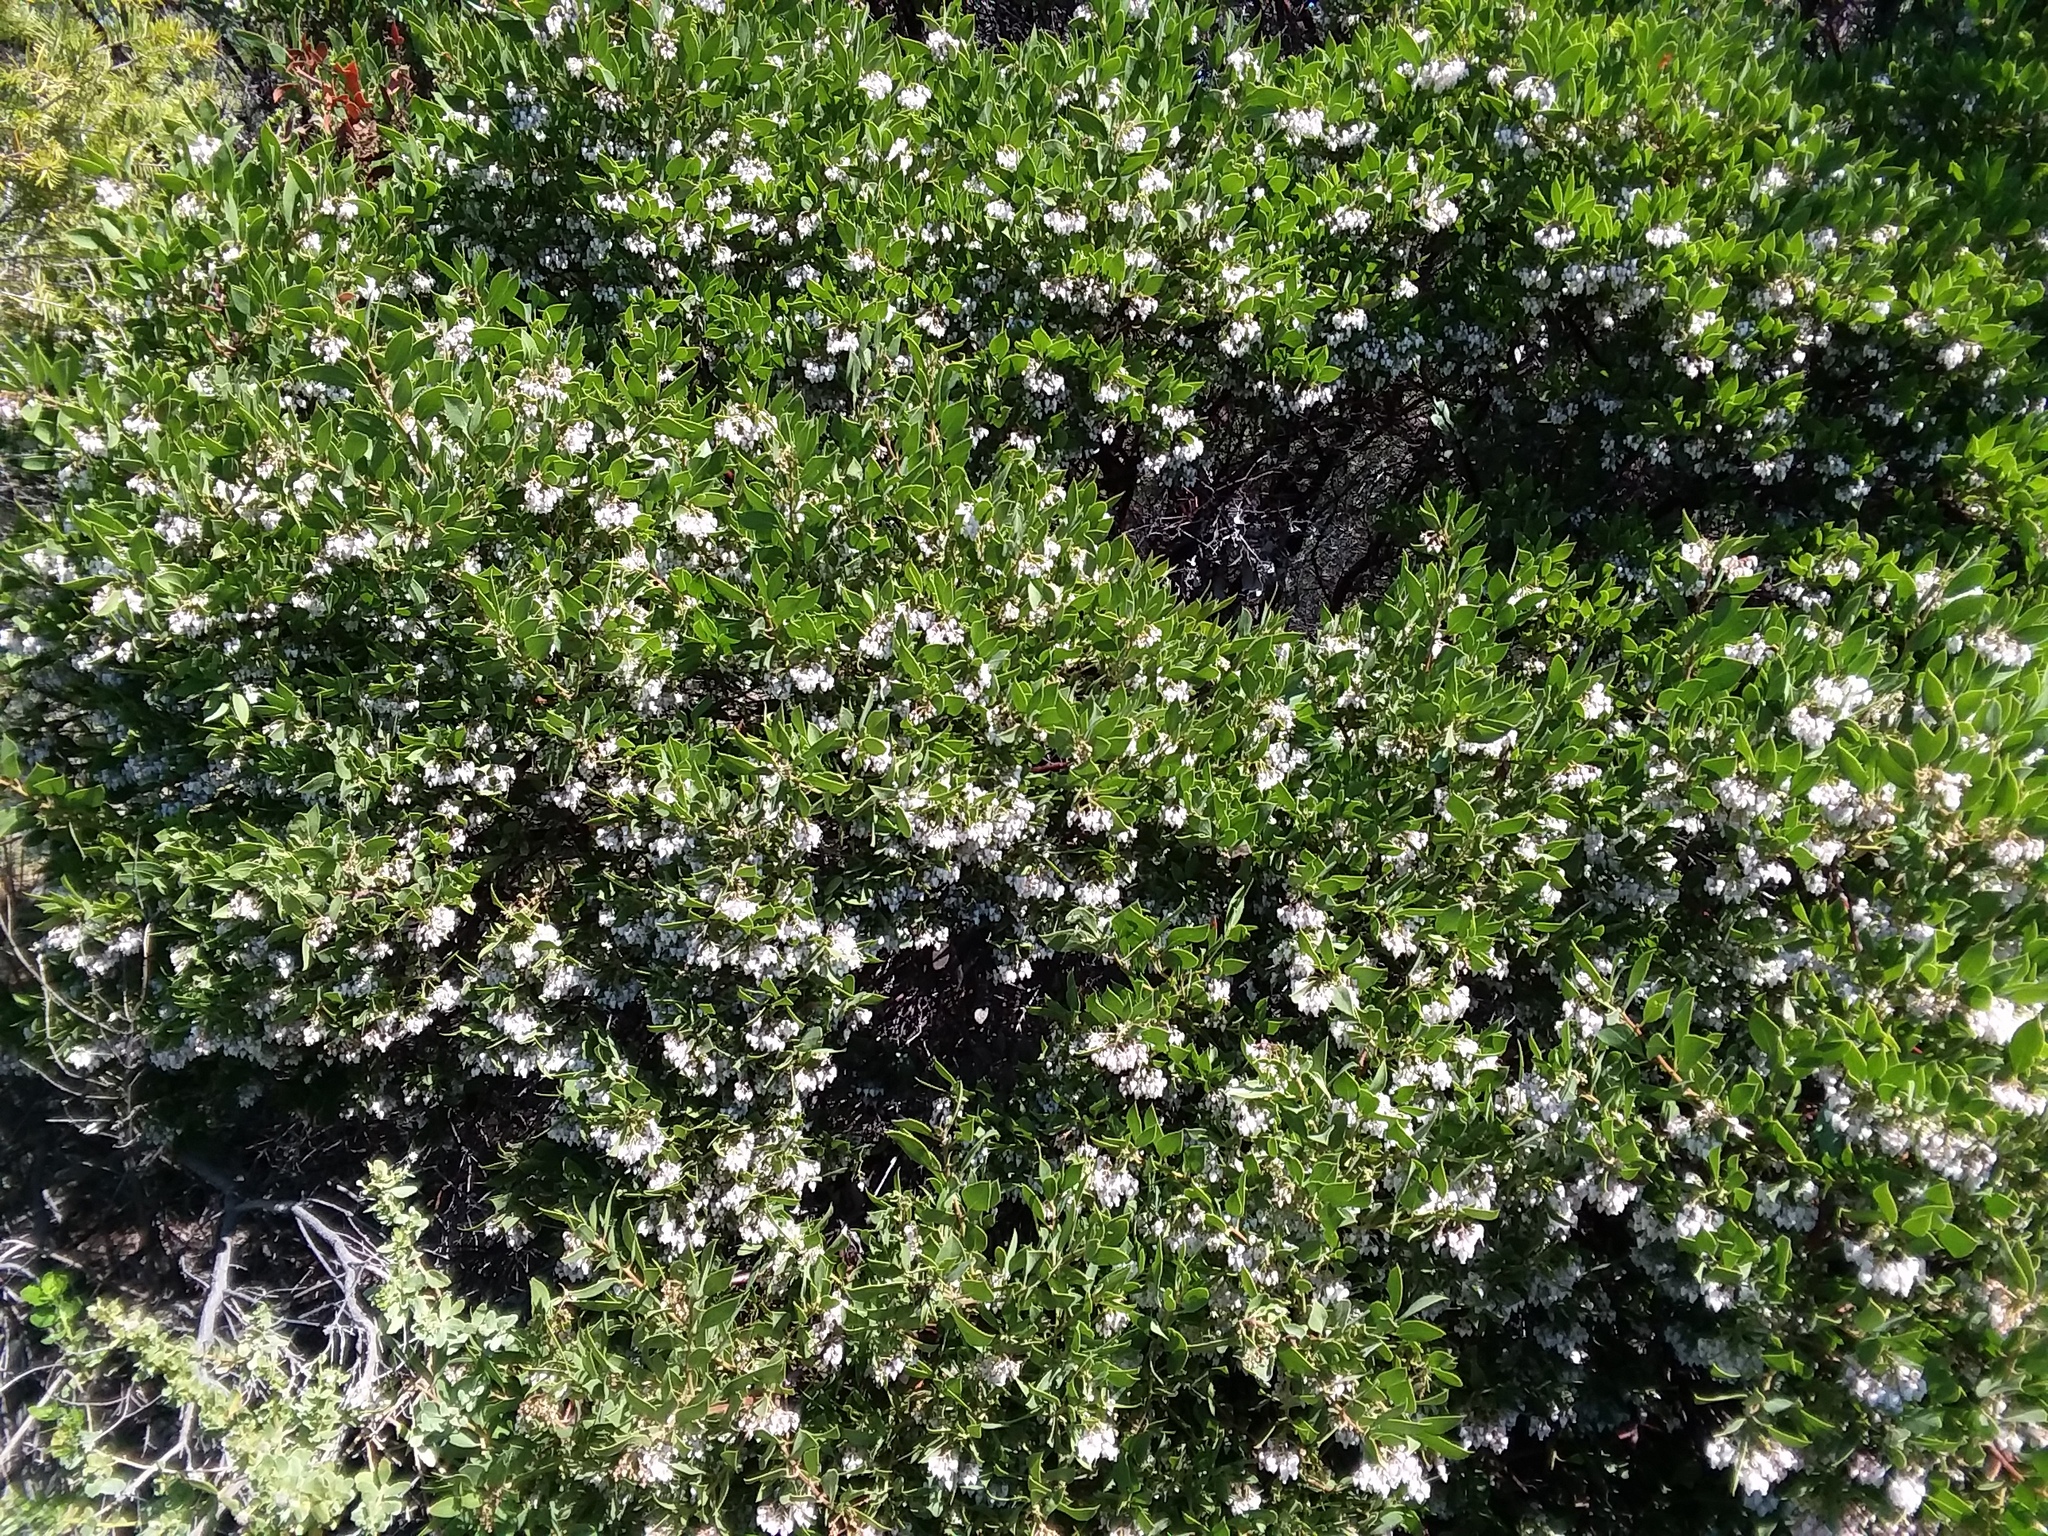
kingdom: Plantae
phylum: Tracheophyta
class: Magnoliopsida
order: Ericales
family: Ericaceae
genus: Arctostaphylos
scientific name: Arctostaphylos hispidula
